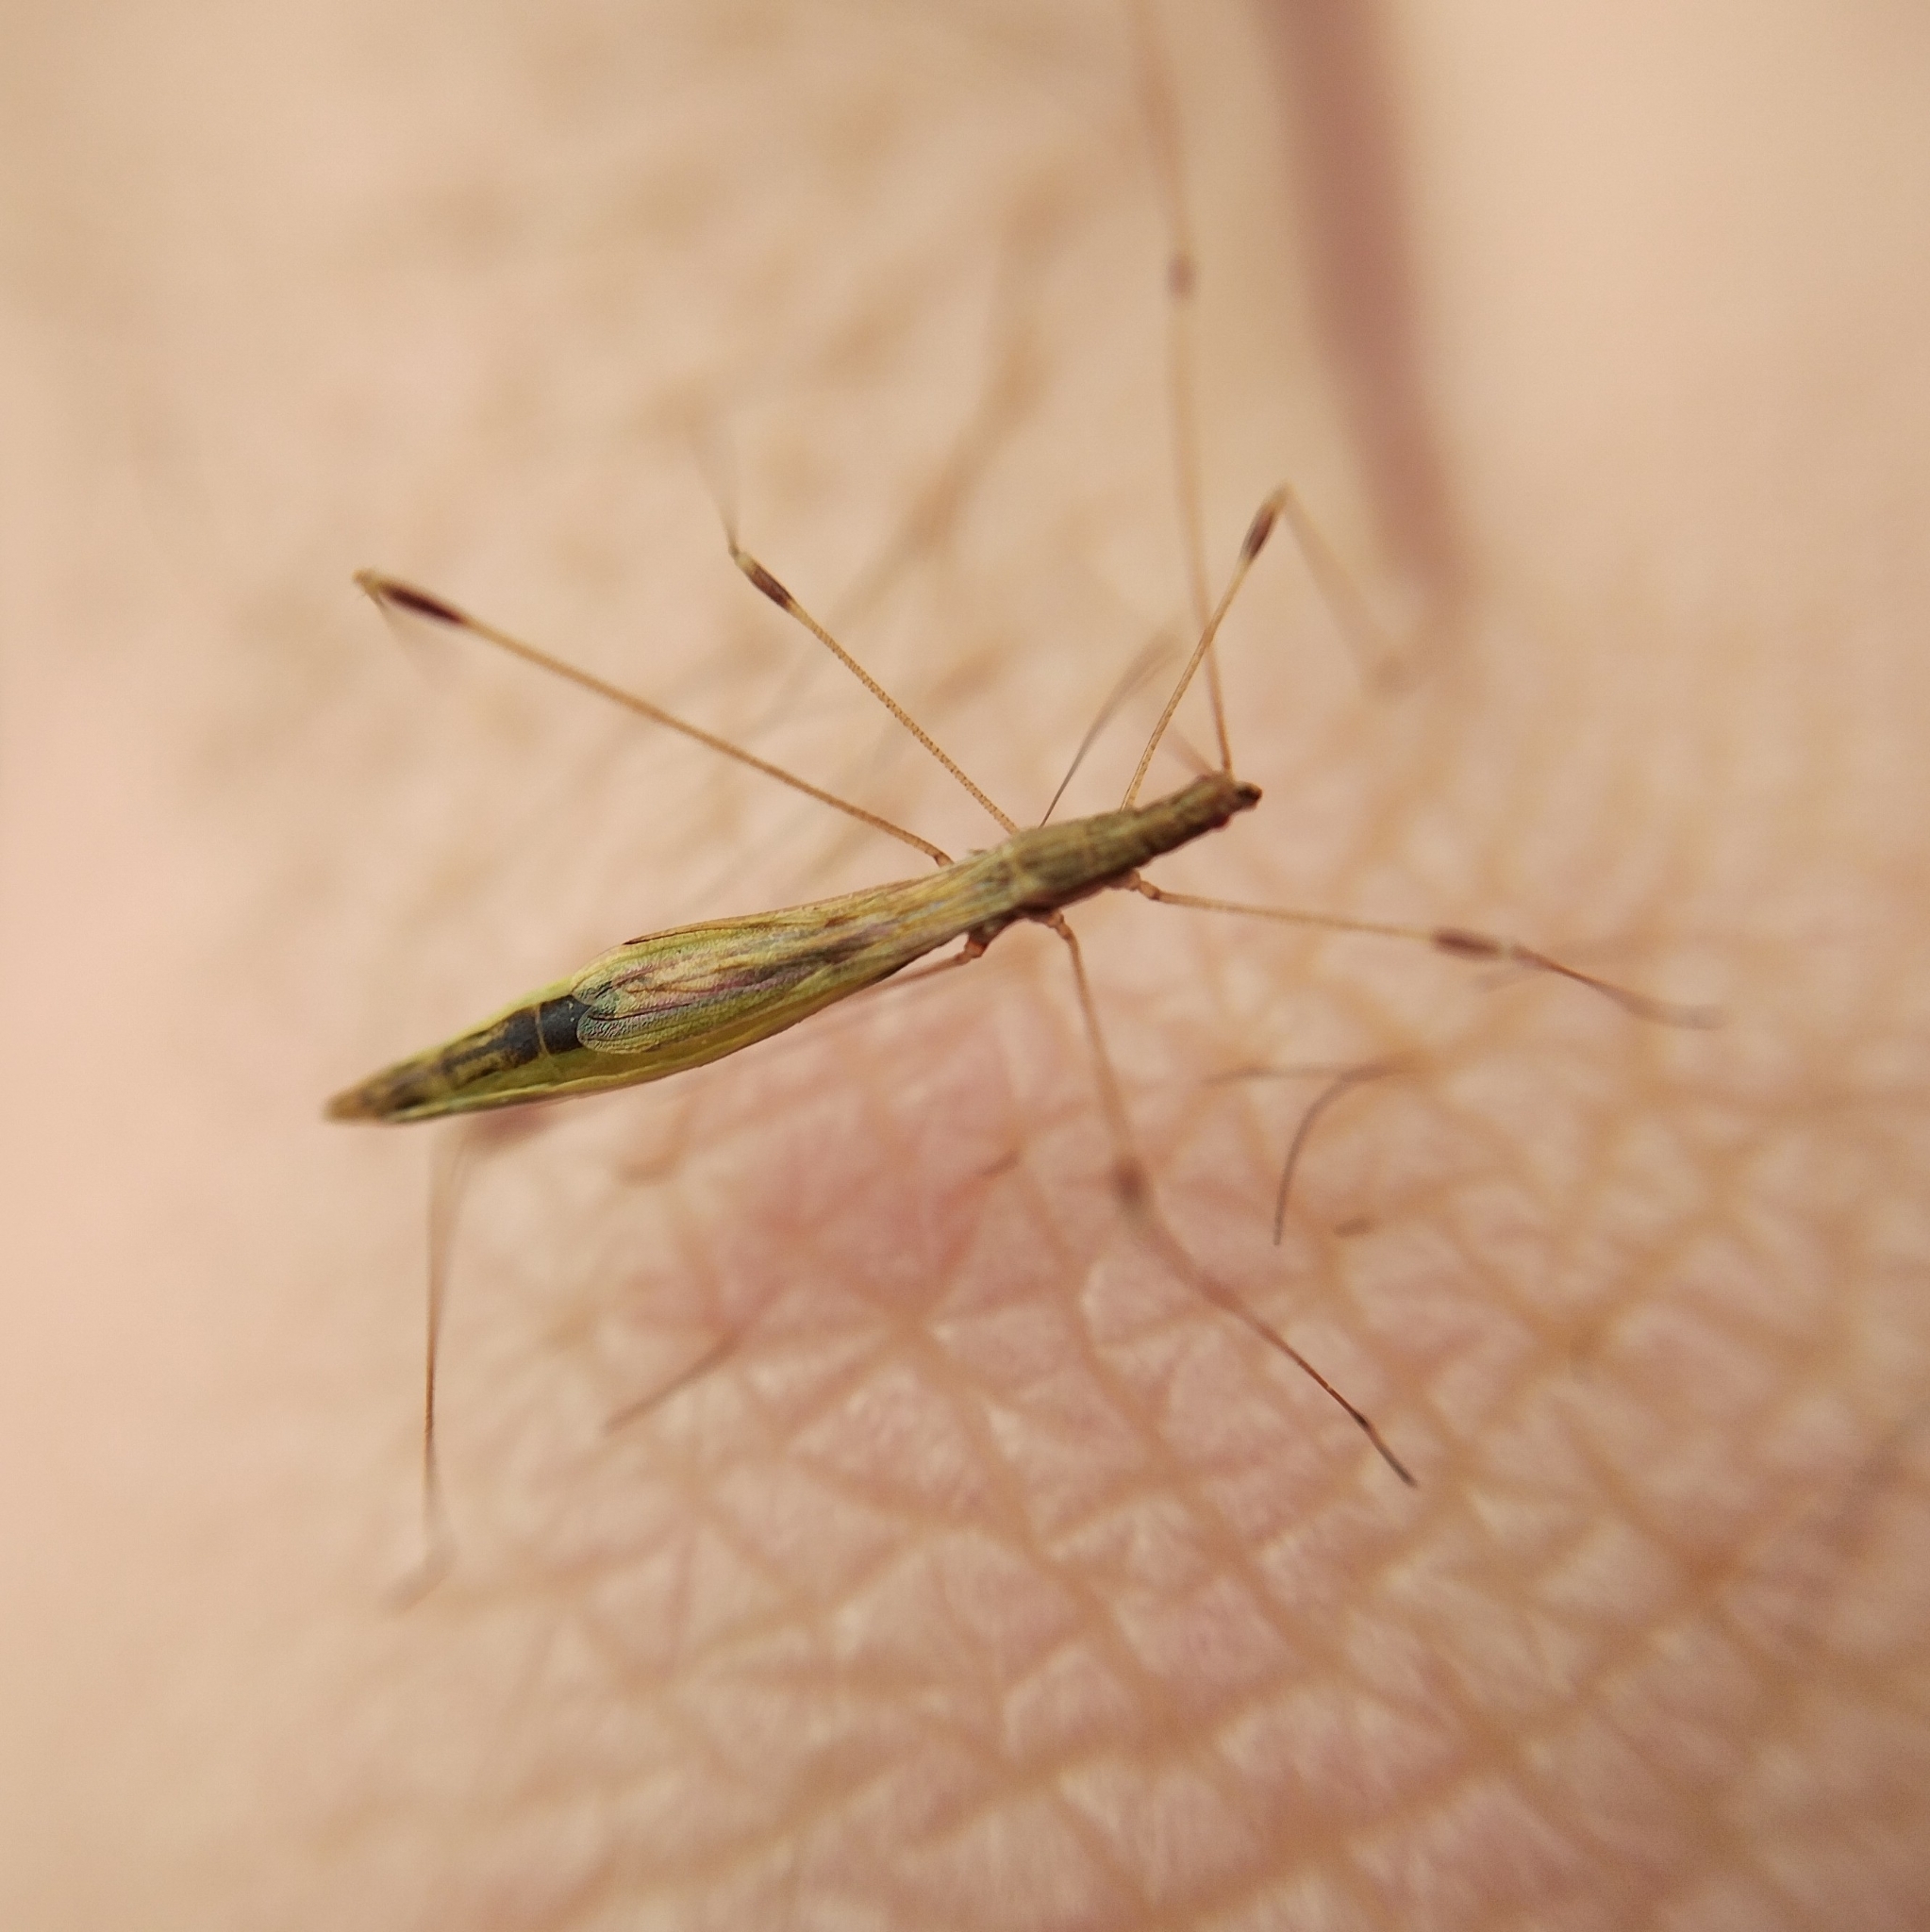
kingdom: Animalia
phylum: Arthropoda
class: Insecta
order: Hemiptera
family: Berytidae
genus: Apoplymus
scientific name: Apoplymus pectoralis
